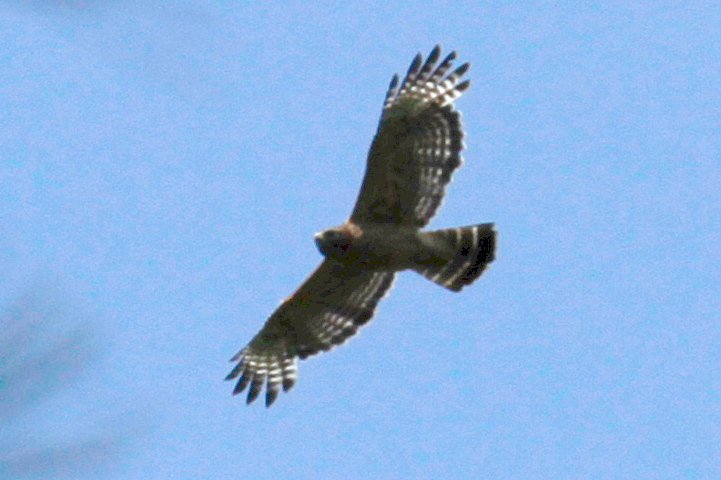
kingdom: Animalia
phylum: Chordata
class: Aves
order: Accipitriformes
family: Accipitridae
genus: Buteo
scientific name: Buteo lineatus
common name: Red-shouldered hawk
